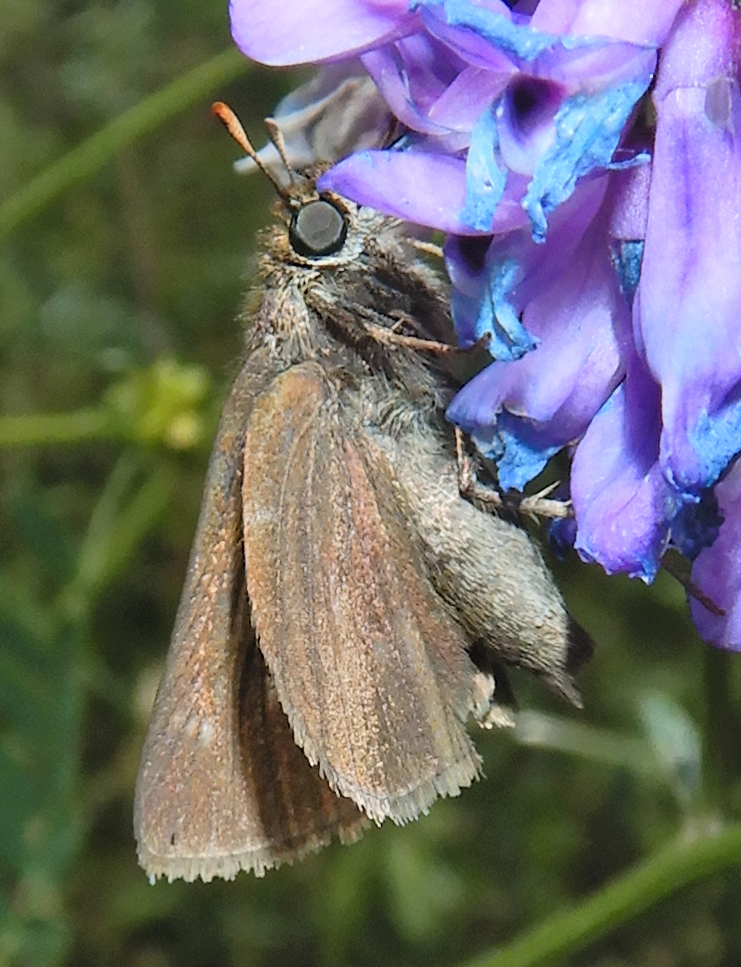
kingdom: Animalia
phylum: Arthropoda
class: Insecta
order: Lepidoptera
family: Hesperiidae
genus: Euphyes
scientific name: Euphyes vestris
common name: Dun skipper
